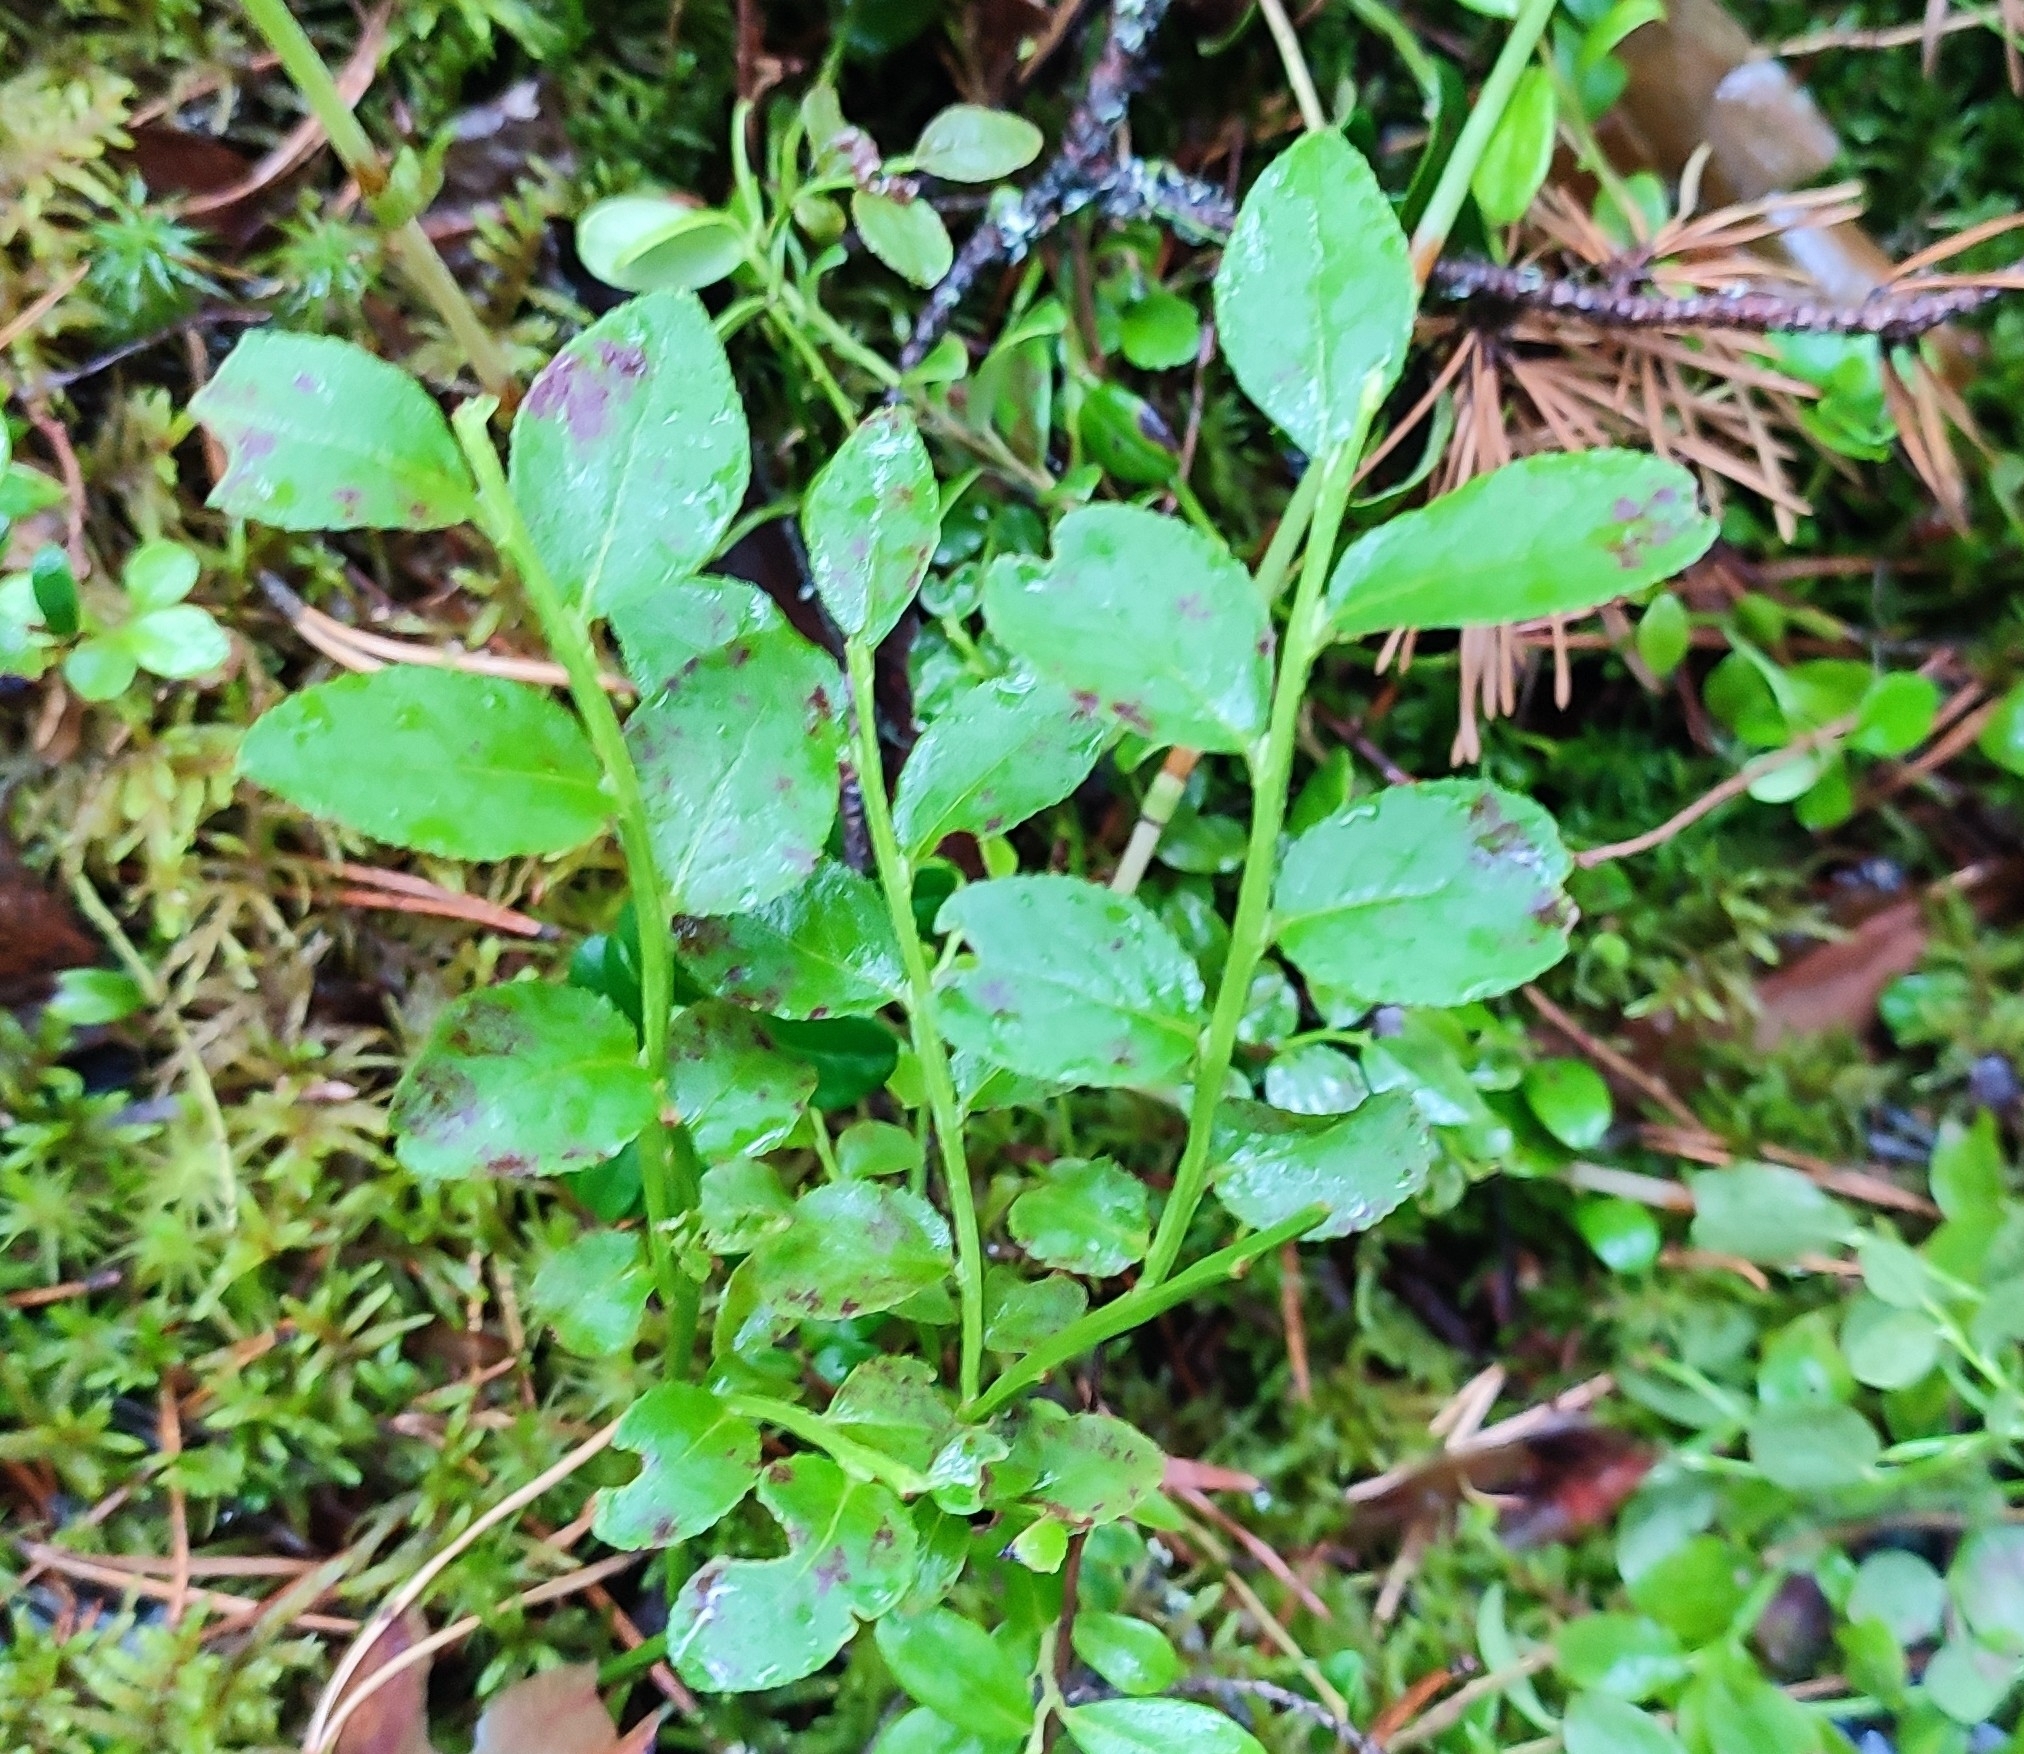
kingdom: Plantae
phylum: Tracheophyta
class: Magnoliopsida
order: Ericales
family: Ericaceae
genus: Vaccinium
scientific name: Vaccinium myrtillus
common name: Bilberry
